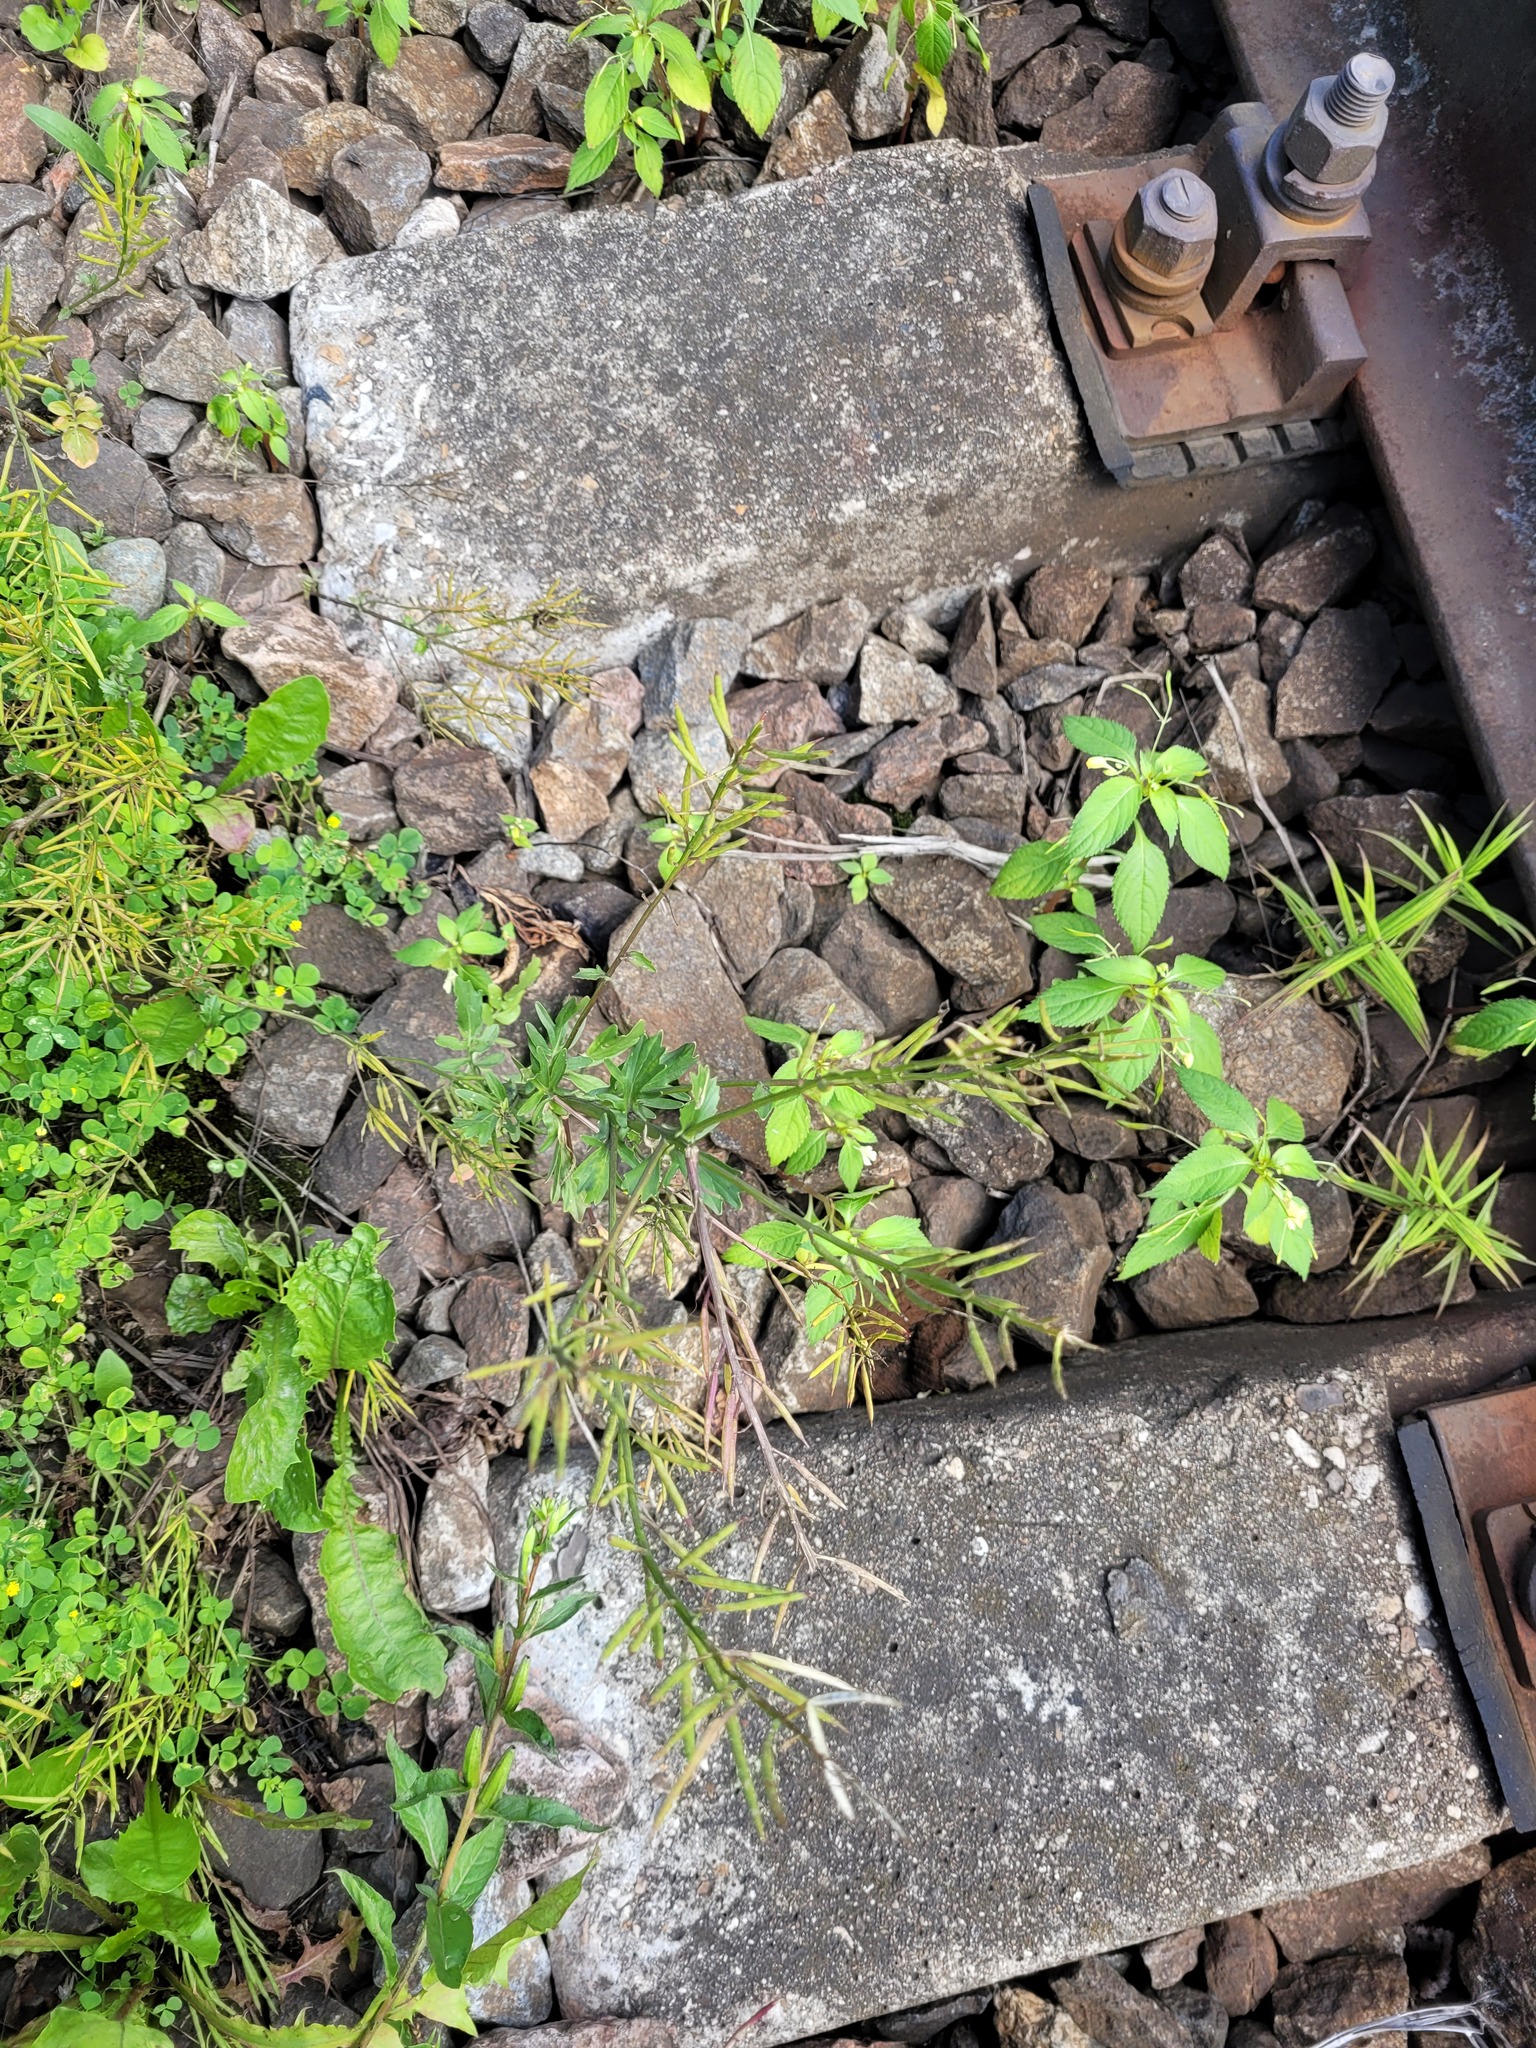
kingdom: Plantae
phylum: Tracheophyta
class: Magnoliopsida
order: Brassicales
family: Brassicaceae
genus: Barbarea
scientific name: Barbarea vulgaris
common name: Cressy-greens
